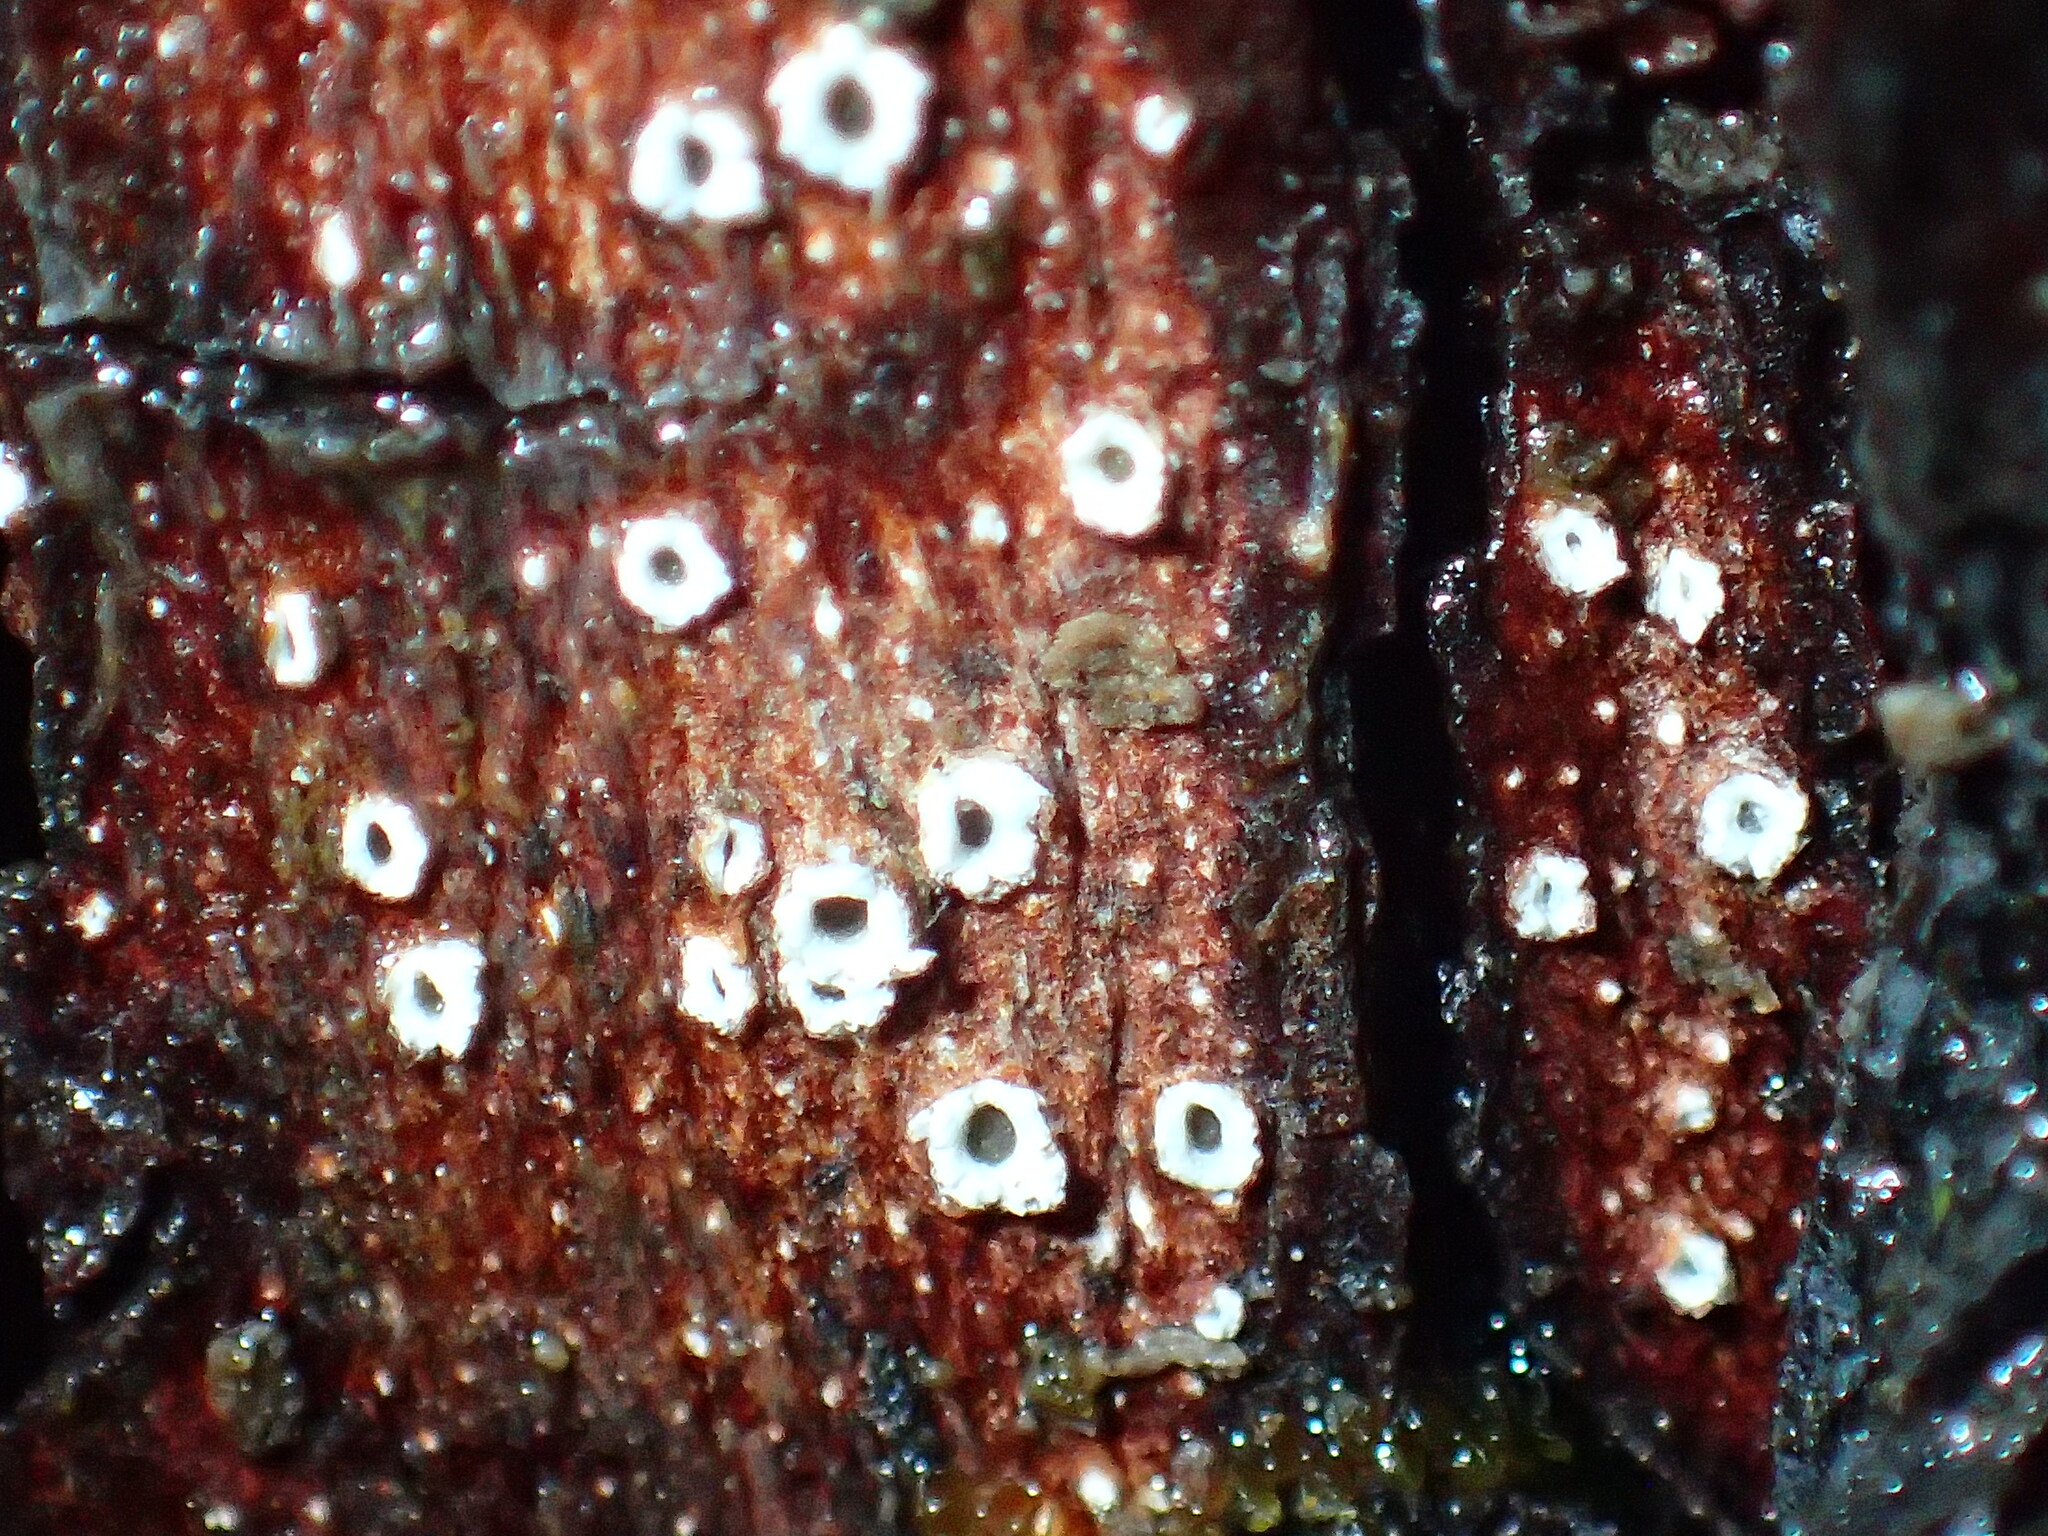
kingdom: Fungi
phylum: Ascomycota
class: Lecanoromycetes
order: Ostropales
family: Stictidaceae
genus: Stictis
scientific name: Stictis radiata
